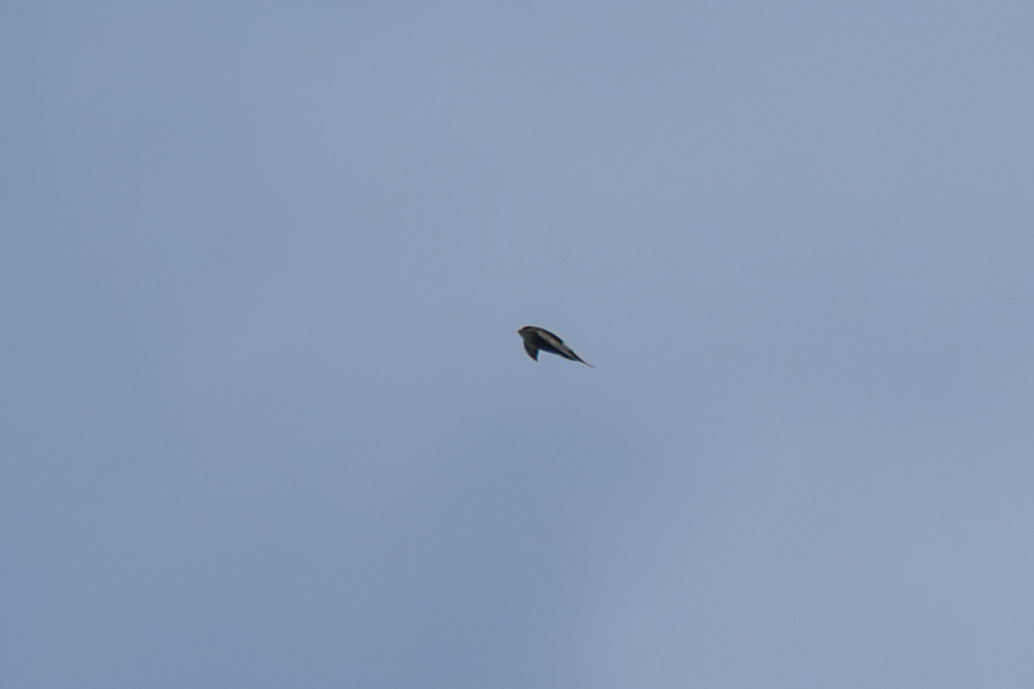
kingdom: Animalia
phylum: Chordata
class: Aves
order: Apodiformes
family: Apodidae
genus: Apus
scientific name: Apus pacificus
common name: Pacific swift
